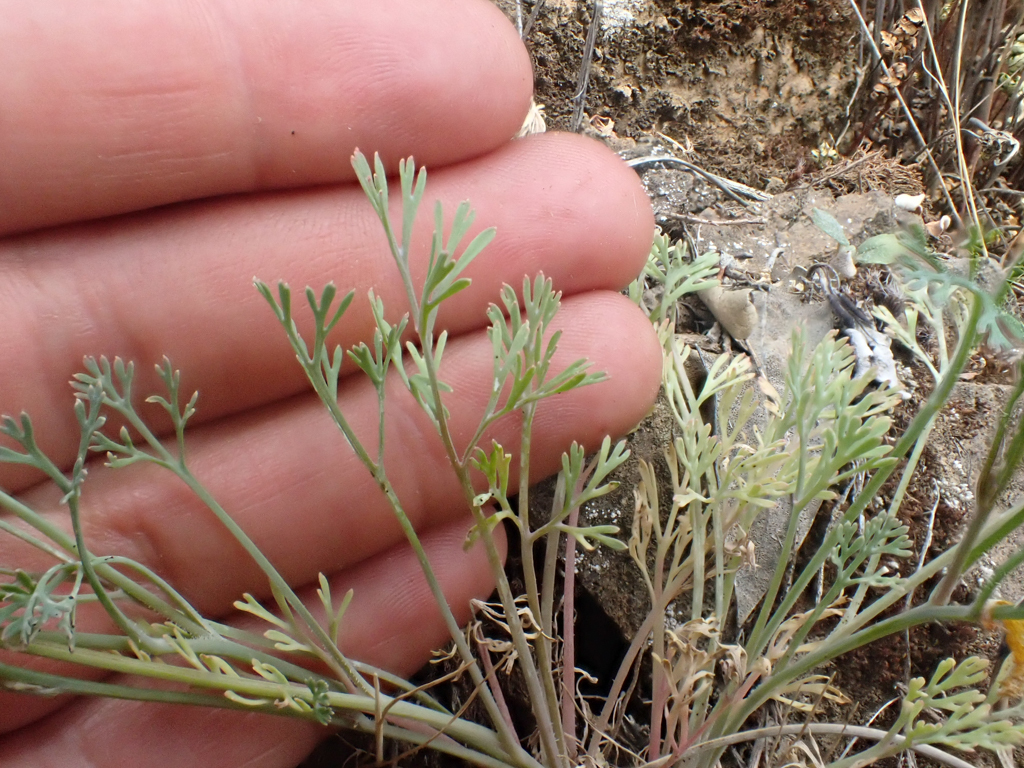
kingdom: Plantae
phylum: Tracheophyta
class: Magnoliopsida
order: Ranunculales
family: Papaveraceae
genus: Eschscholzia
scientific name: Eschscholzia caespitosa
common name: Tufted california-poppy
